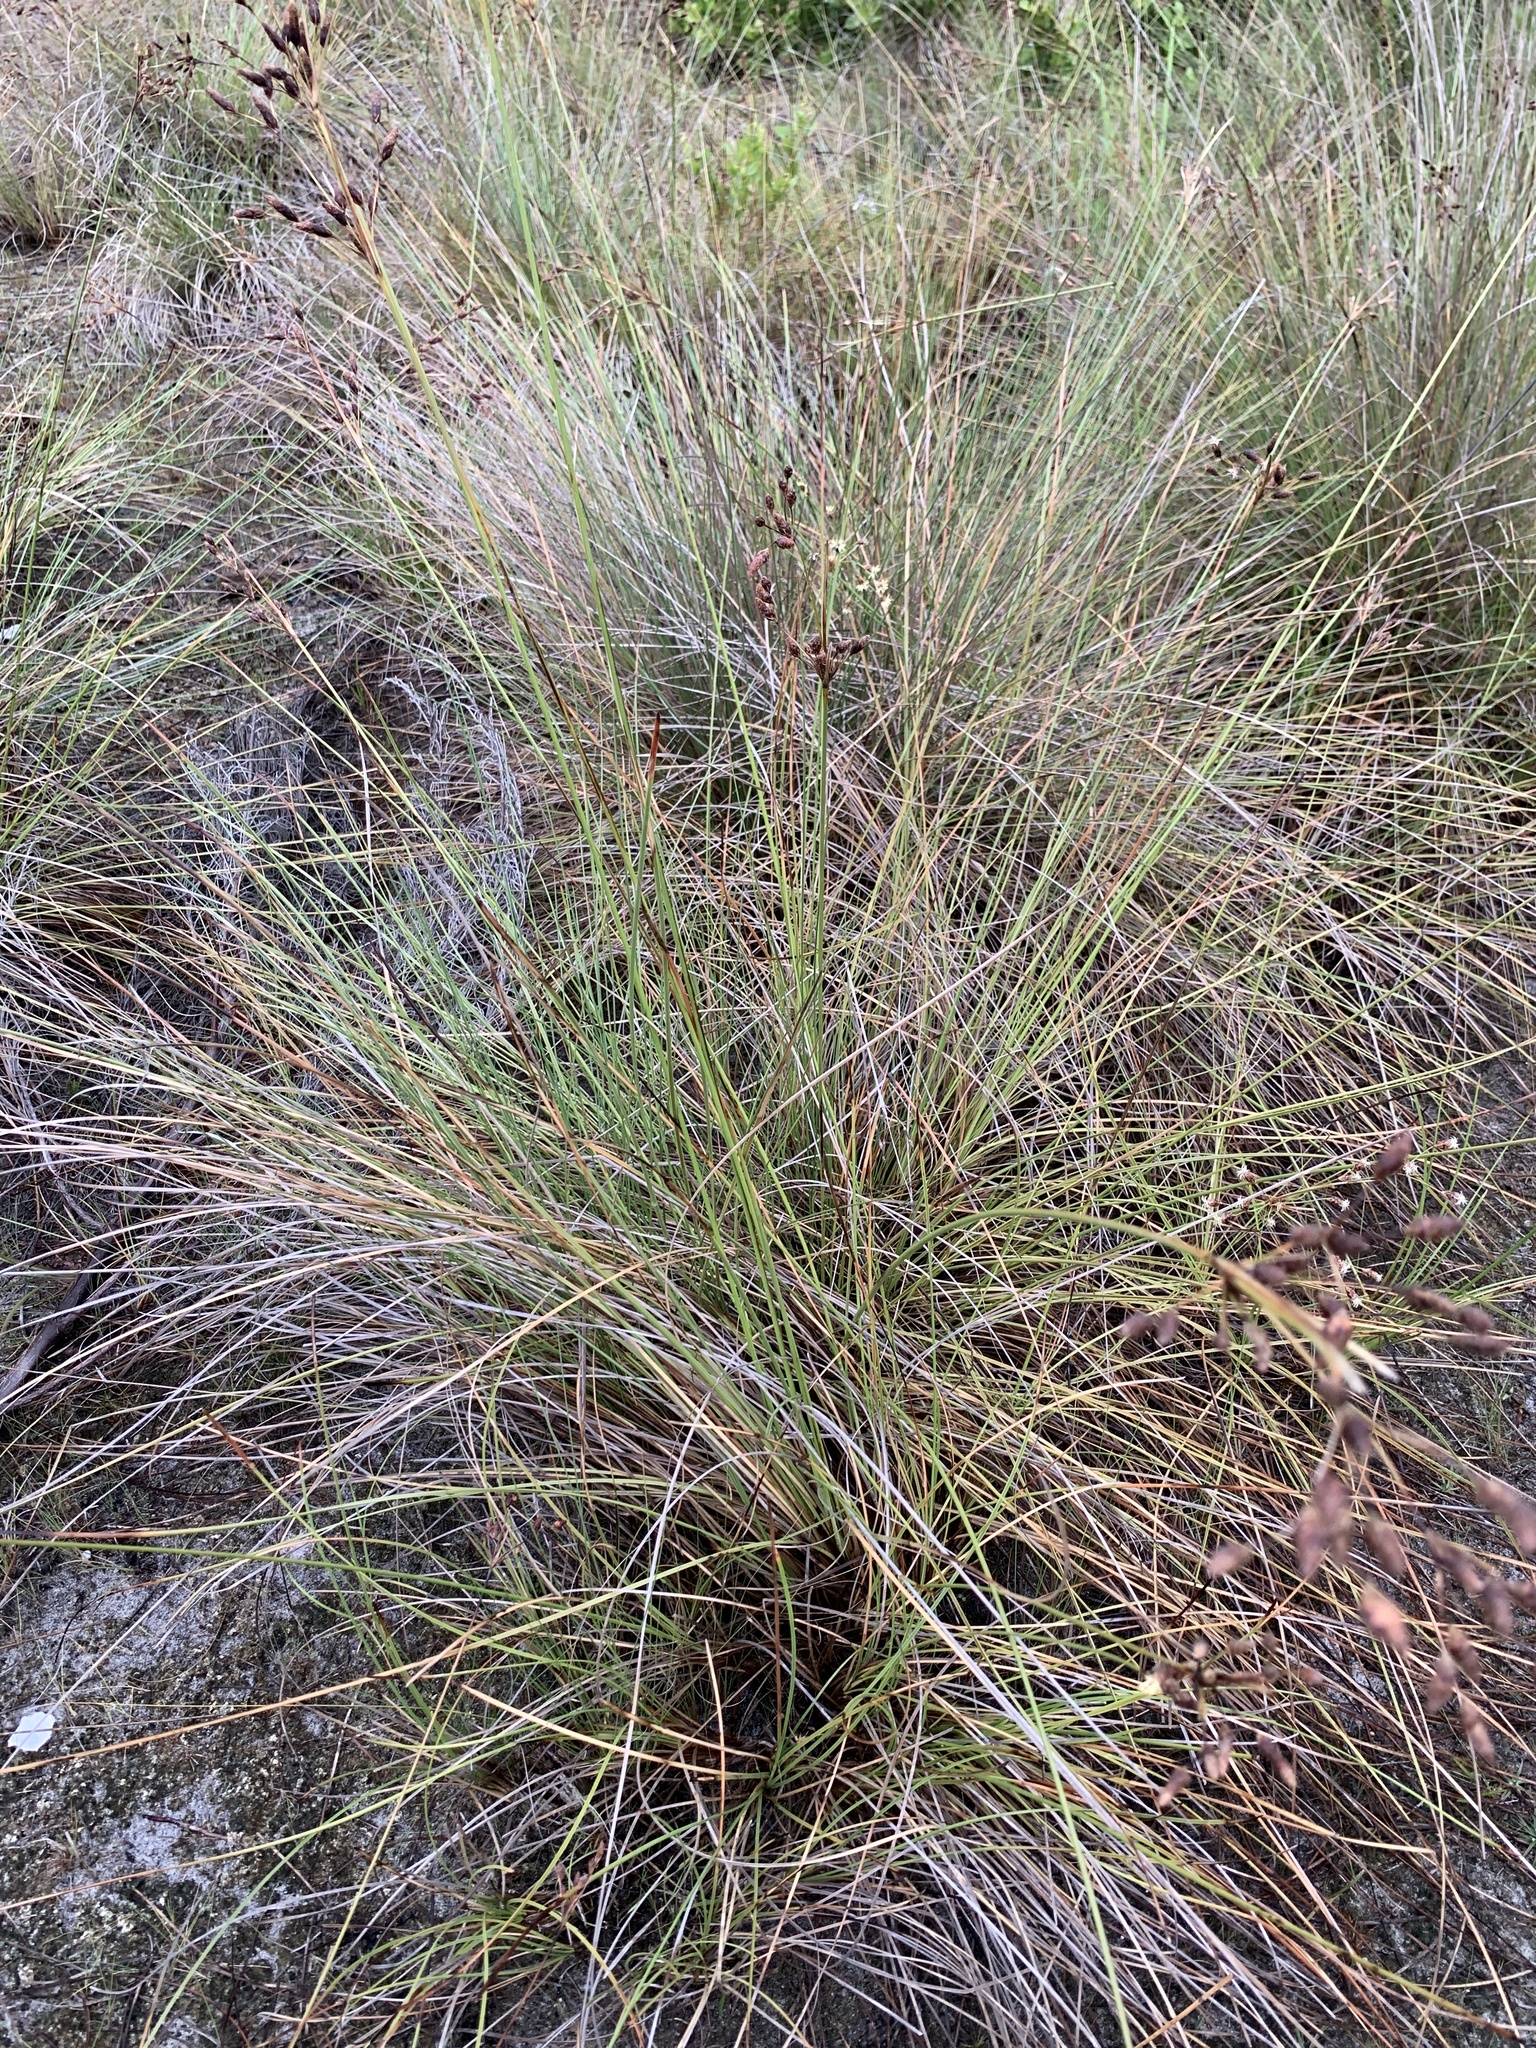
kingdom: Plantae
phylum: Tracheophyta
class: Liliopsida
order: Poales
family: Cyperaceae
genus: Fimbristylis
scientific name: Fimbristylis spadicea
